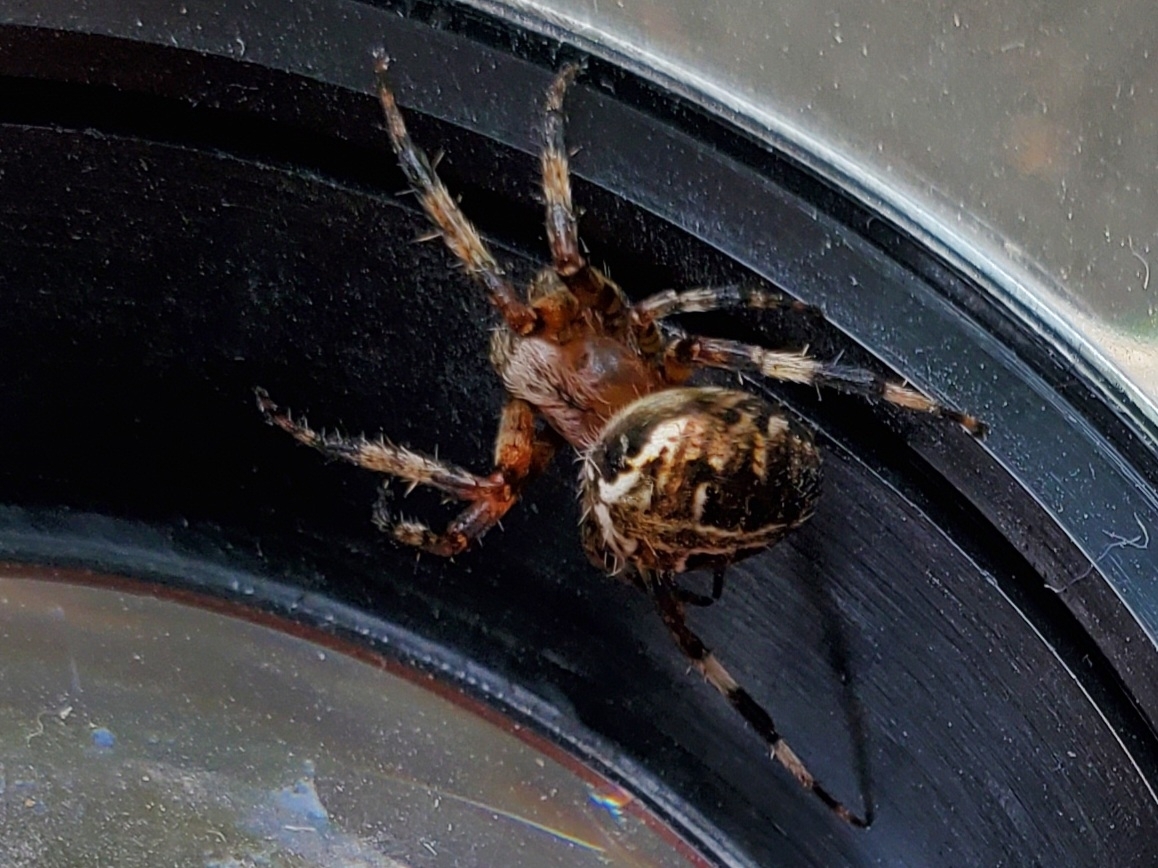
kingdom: Animalia
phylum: Arthropoda
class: Arachnida
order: Araneae
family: Araneidae
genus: Neoscona
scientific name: Neoscona domiciliorum
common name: Red-femured spotted orbweaver
